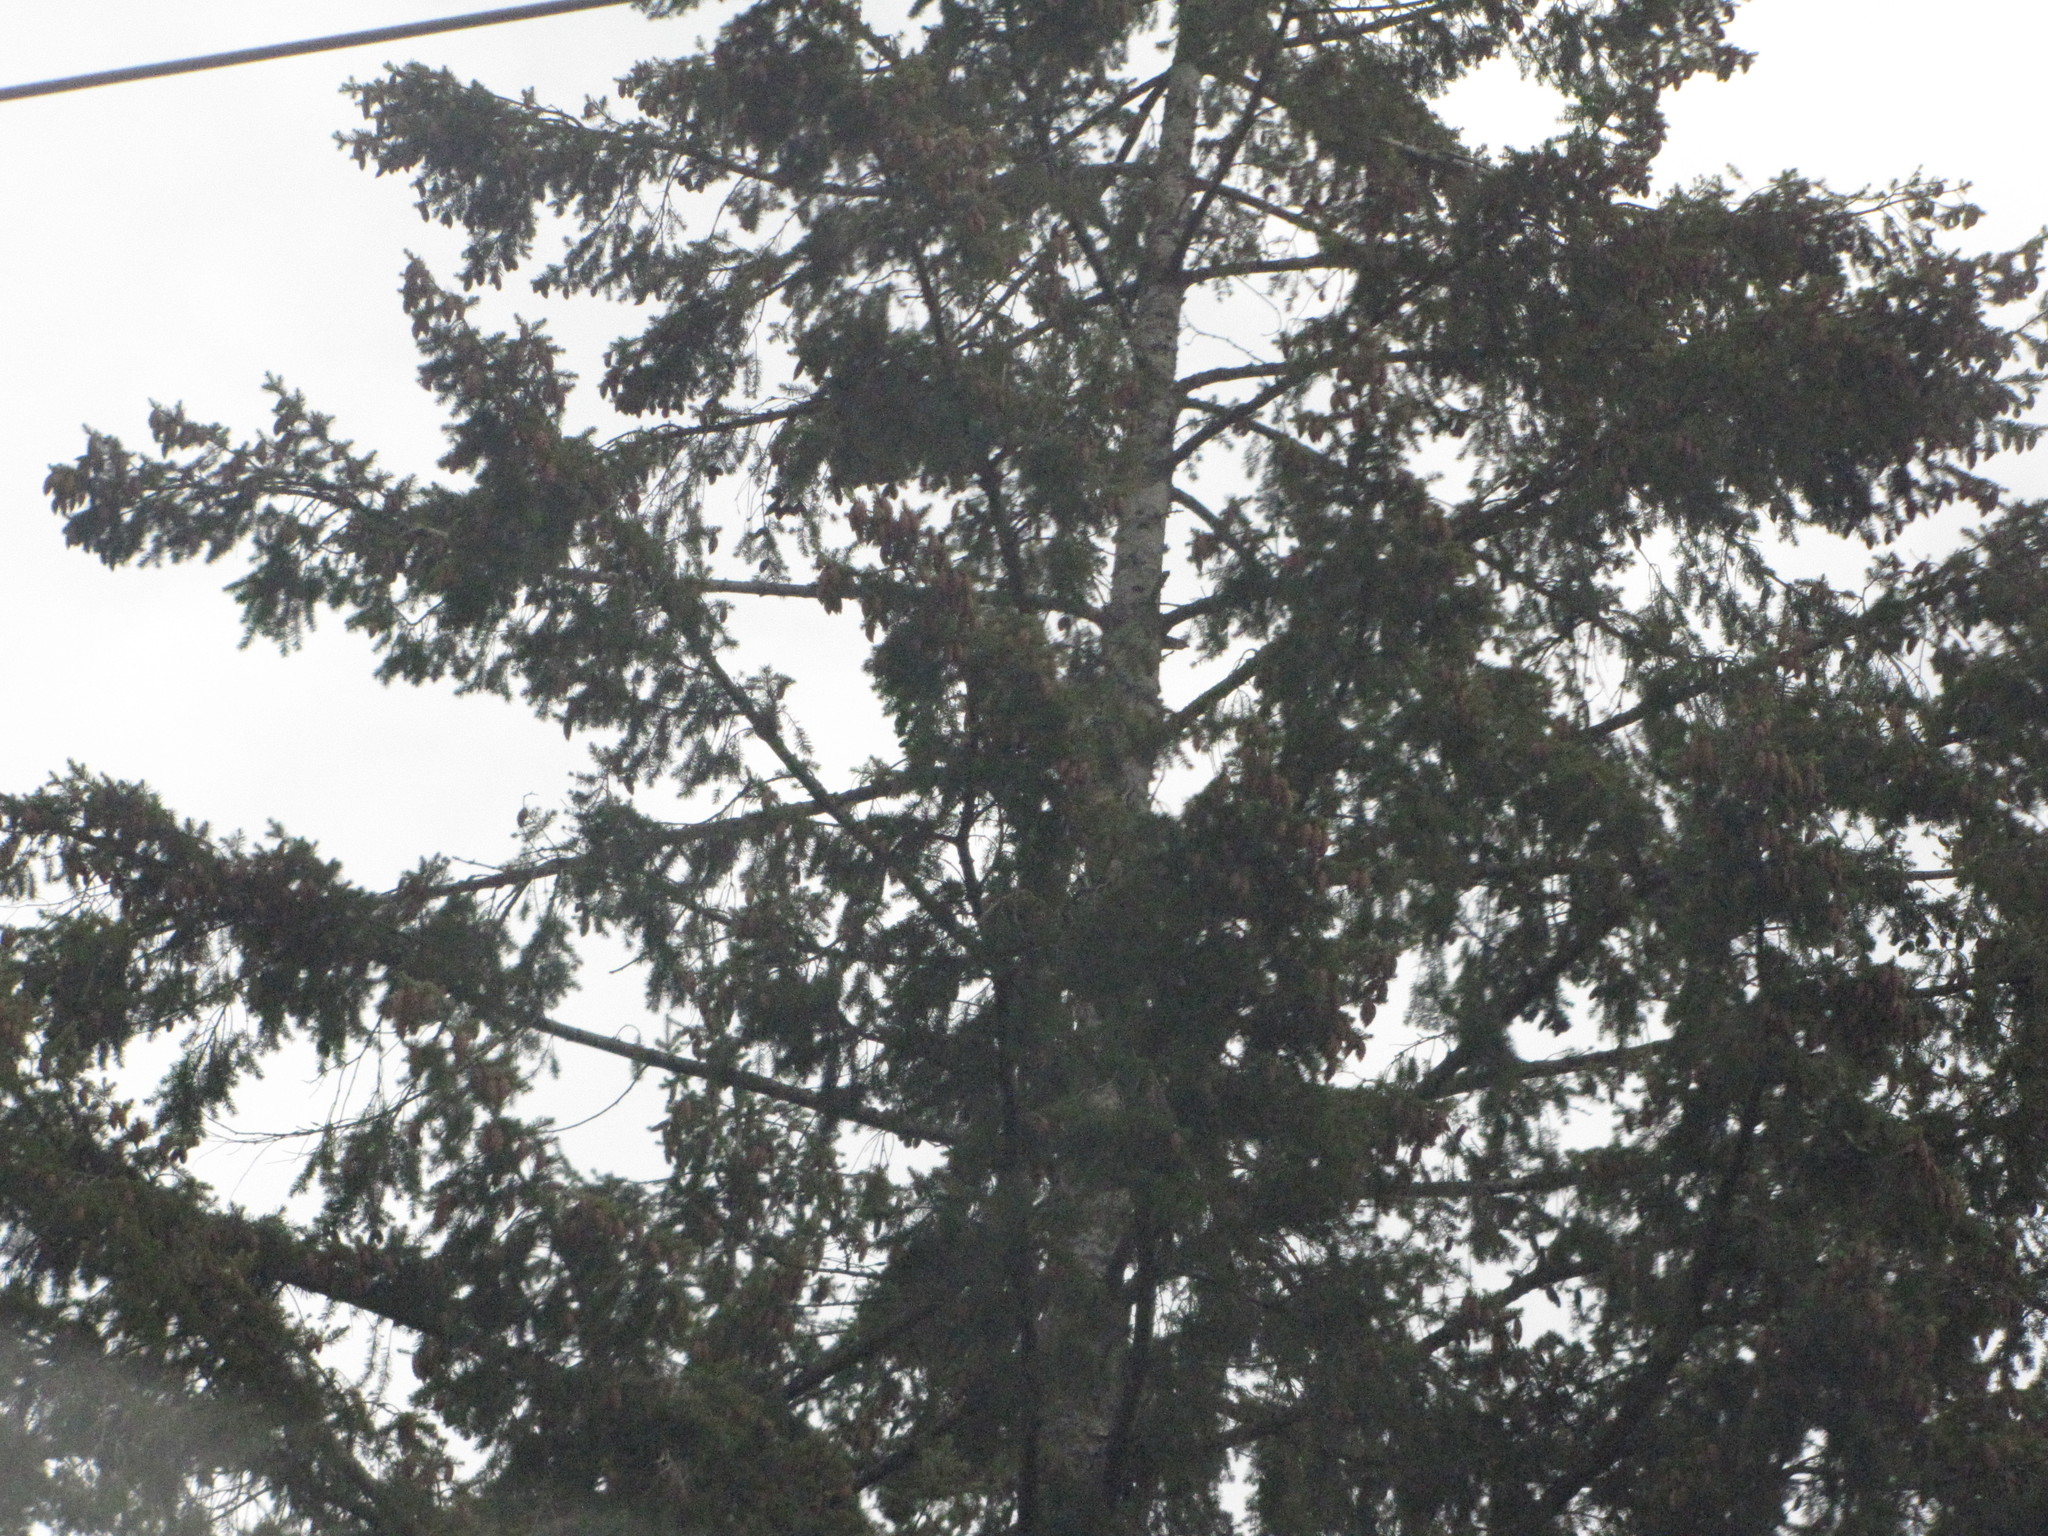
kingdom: Plantae
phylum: Tracheophyta
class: Pinopsida
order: Pinales
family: Pinaceae
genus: Pseudotsuga
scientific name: Pseudotsuga menziesii
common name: Douglas fir
